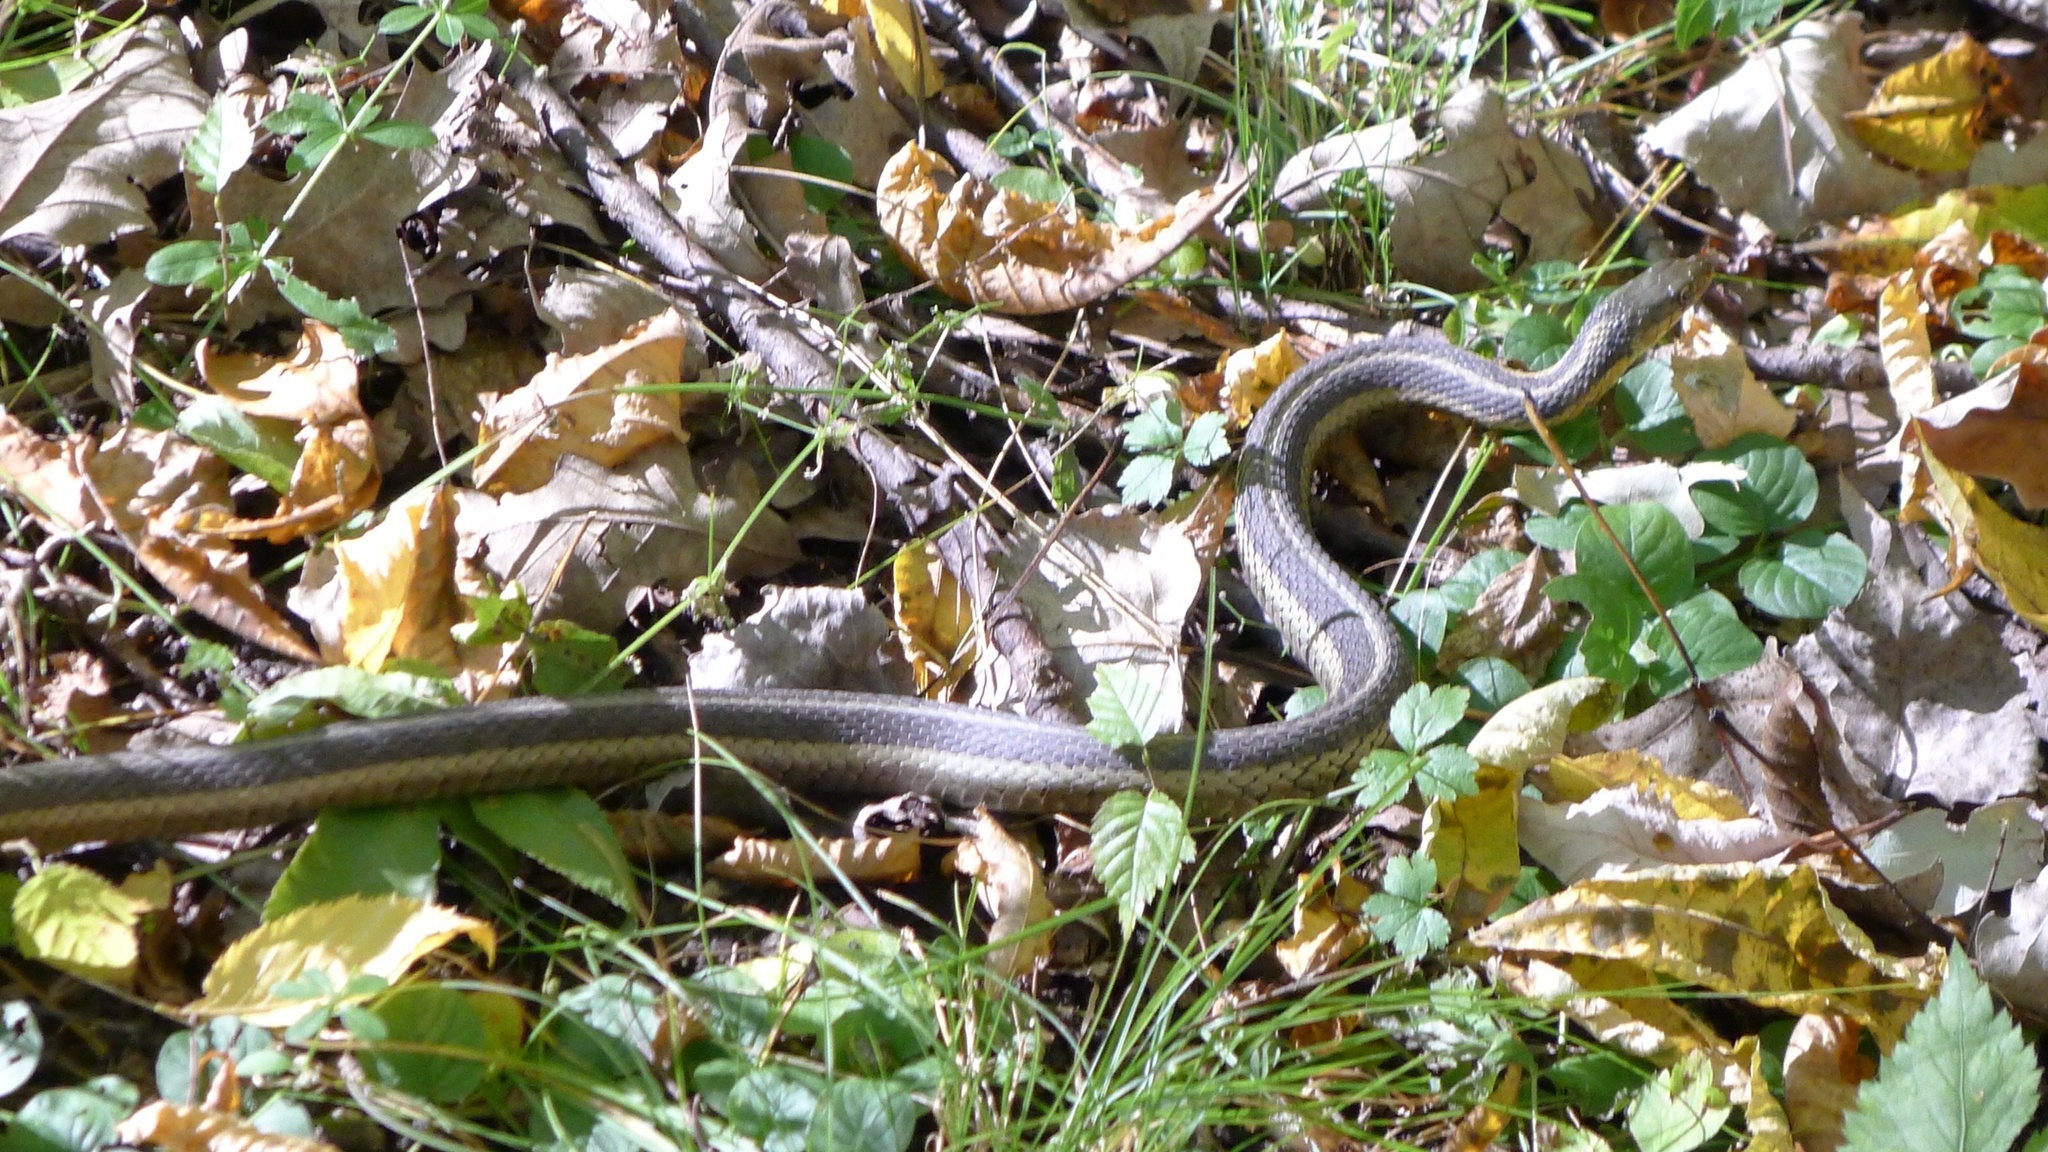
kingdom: Animalia
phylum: Chordata
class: Squamata
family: Colubridae
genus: Thamnophis
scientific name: Thamnophis sirtalis
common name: Common garter snake
